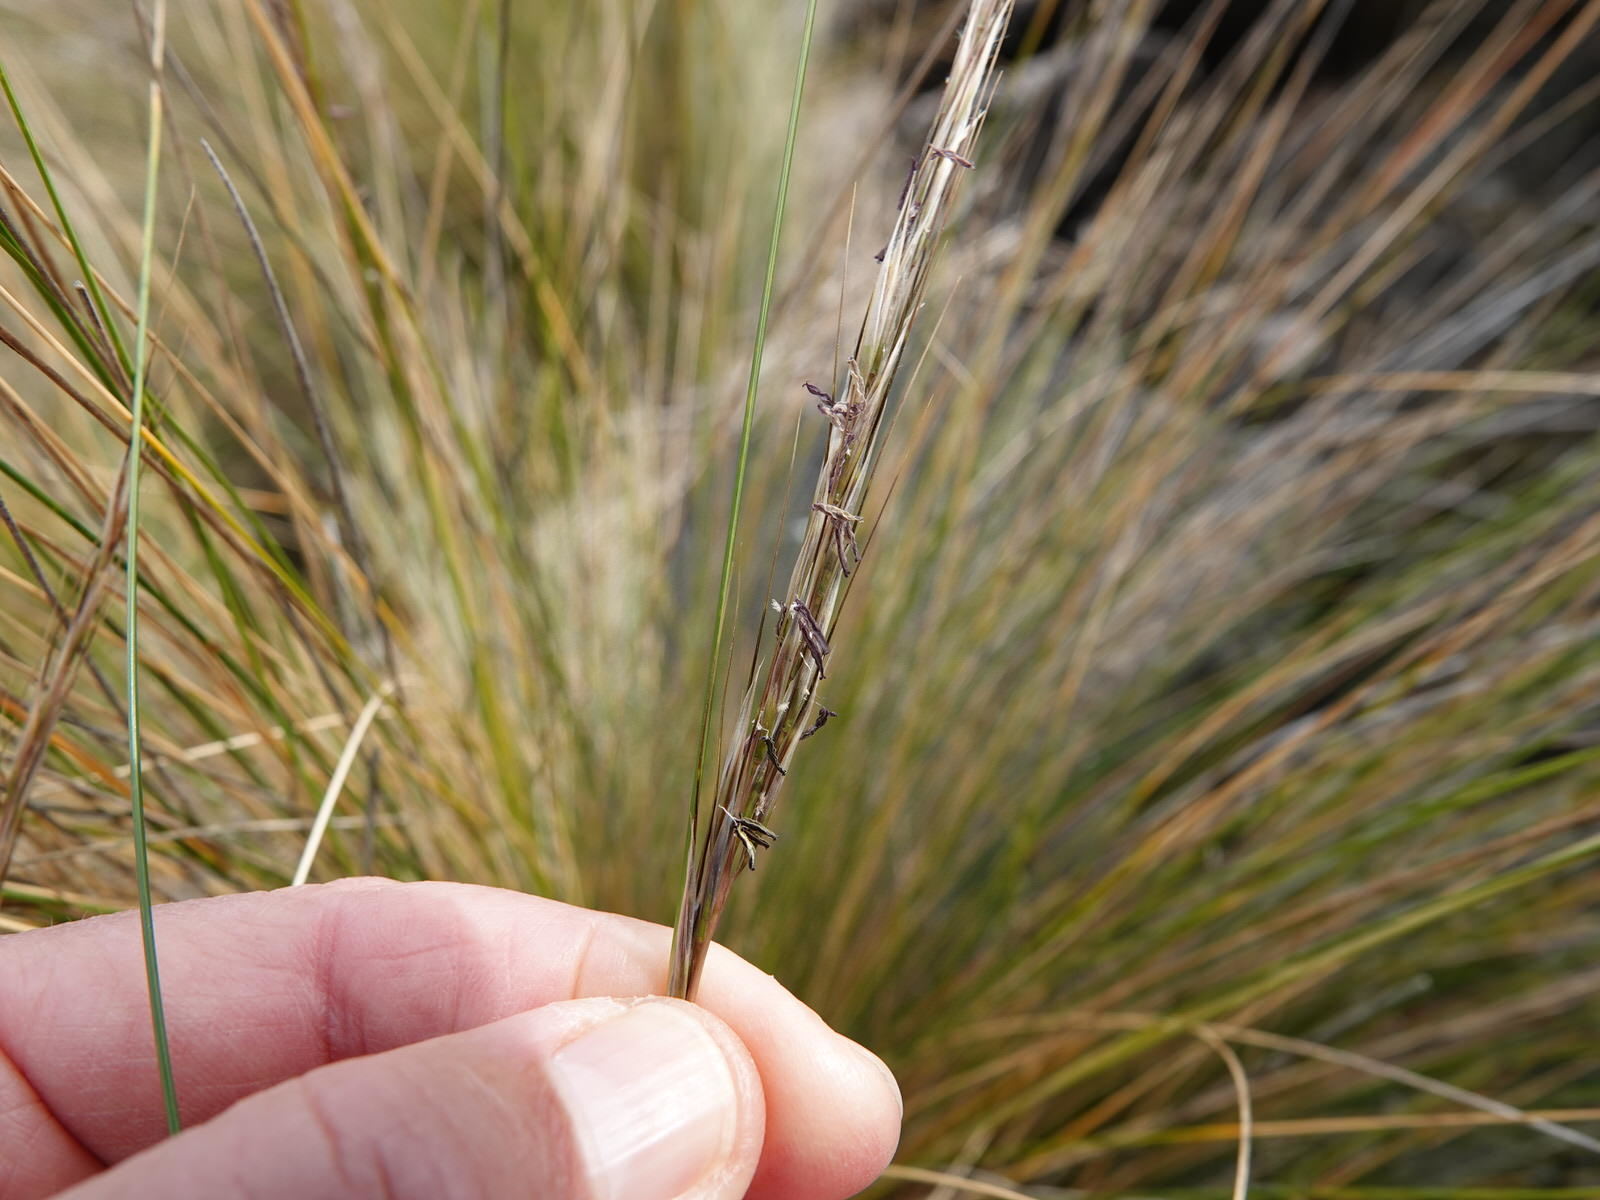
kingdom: Plantae
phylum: Tracheophyta
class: Liliopsida
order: Poales
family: Poaceae
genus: Austrostipa
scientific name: Austrostipa stipoides
